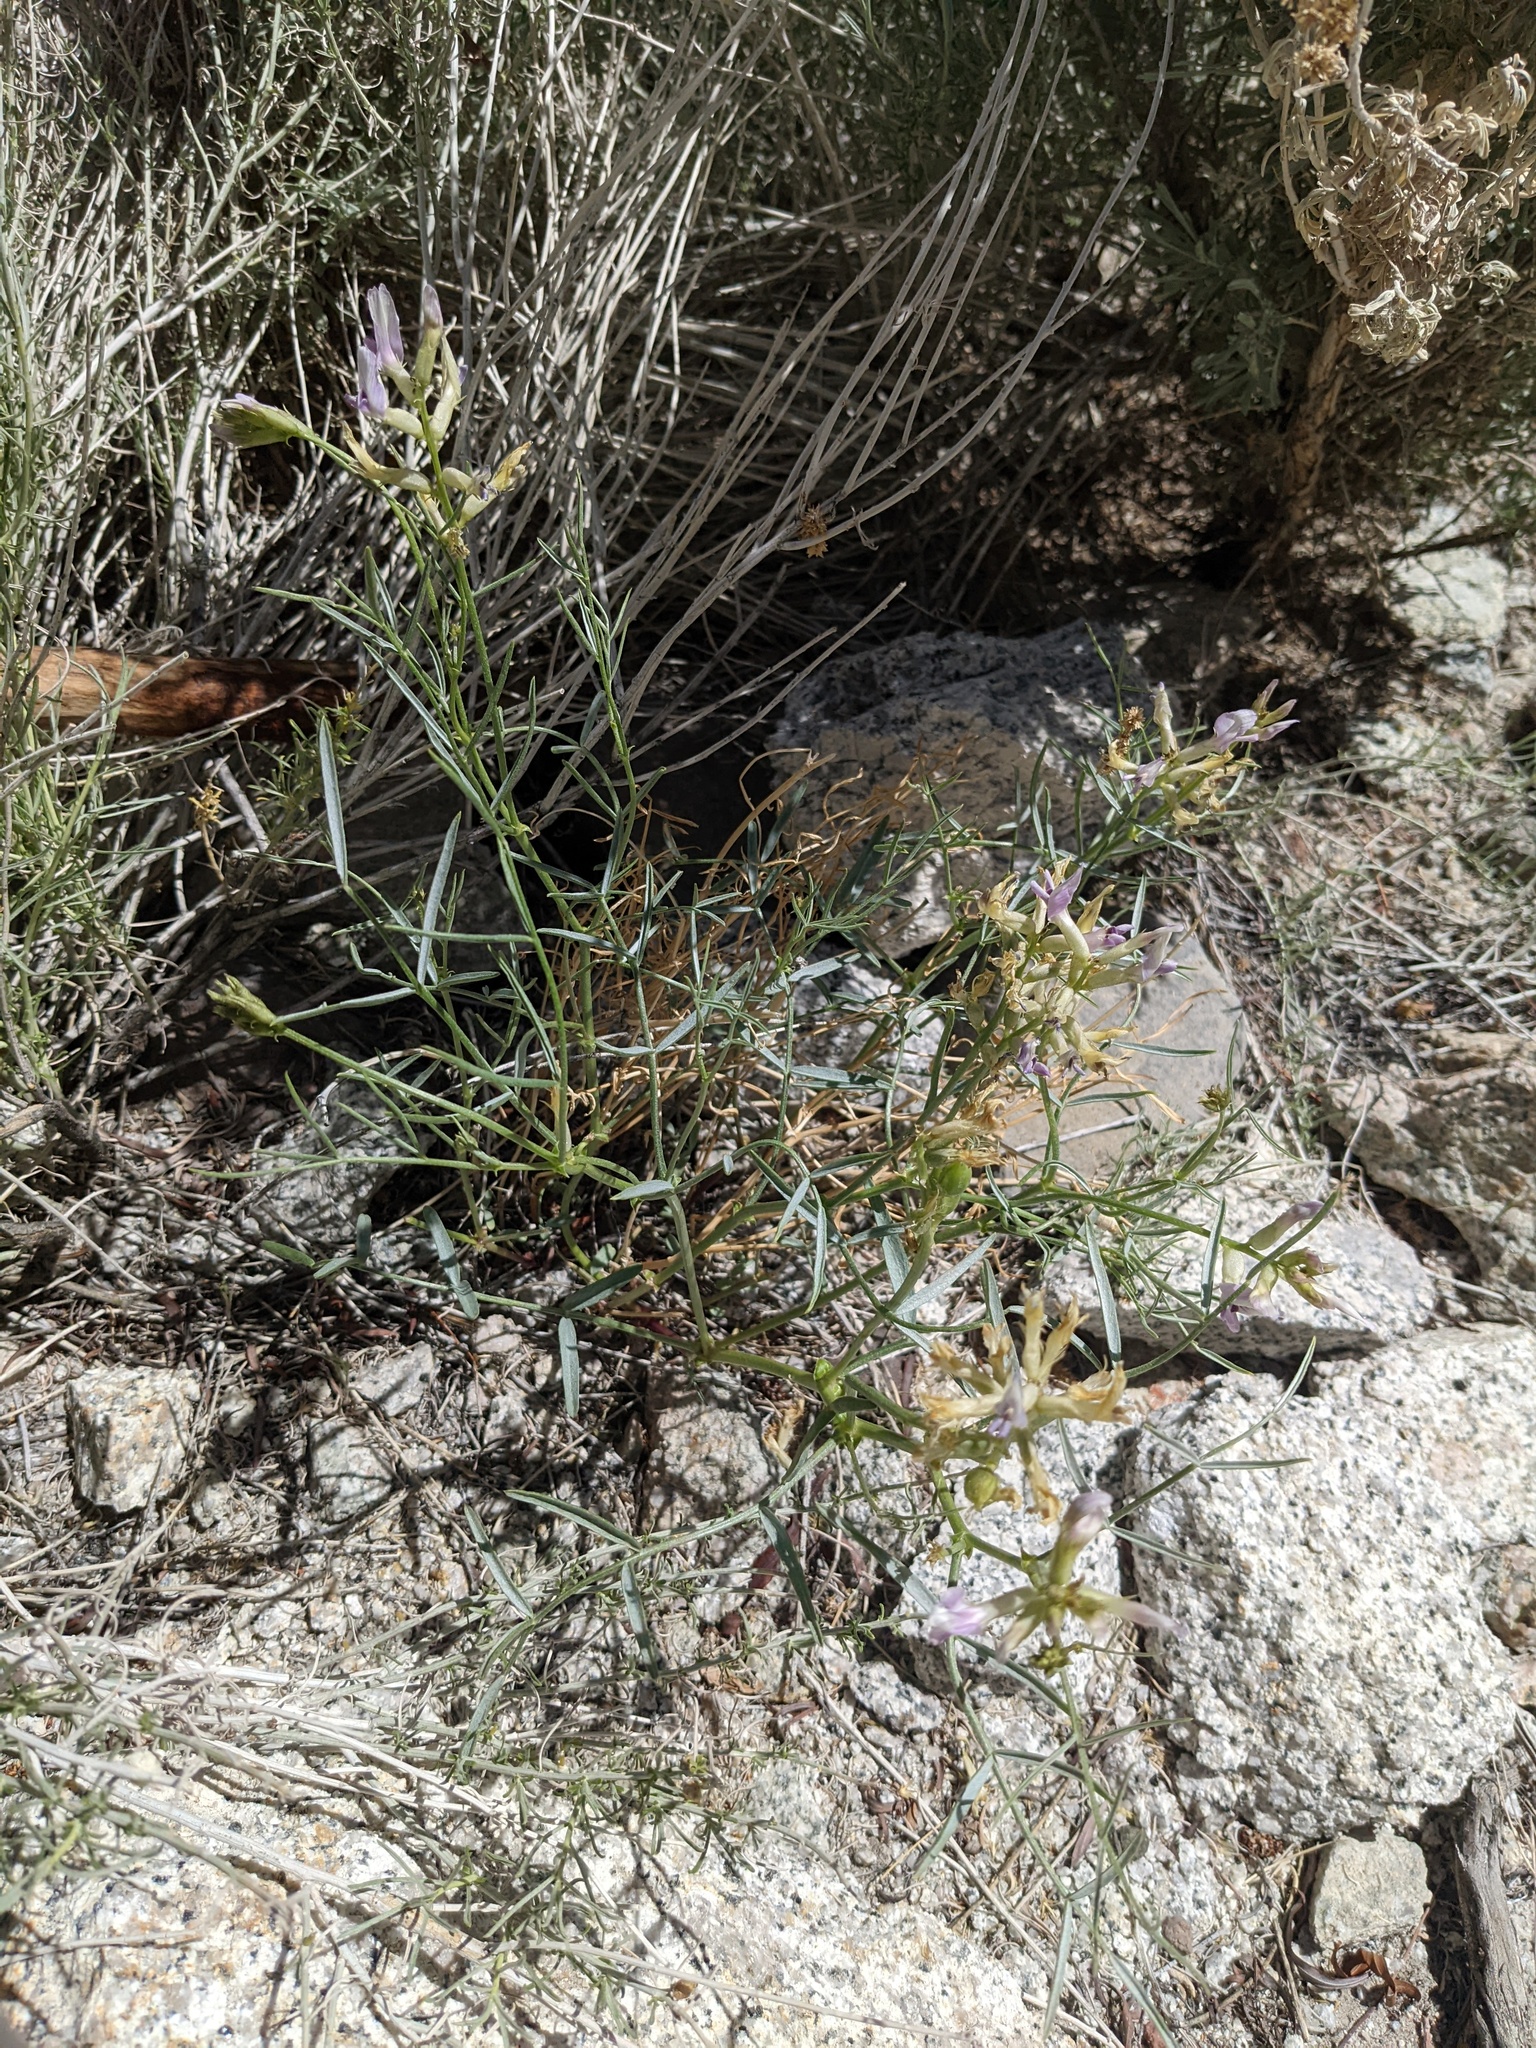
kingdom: Plantae
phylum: Tracheophyta
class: Magnoliopsida
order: Fabales
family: Fabaceae
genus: Astragalus
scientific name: Astragalus serenoi
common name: Naked milk-vetch
